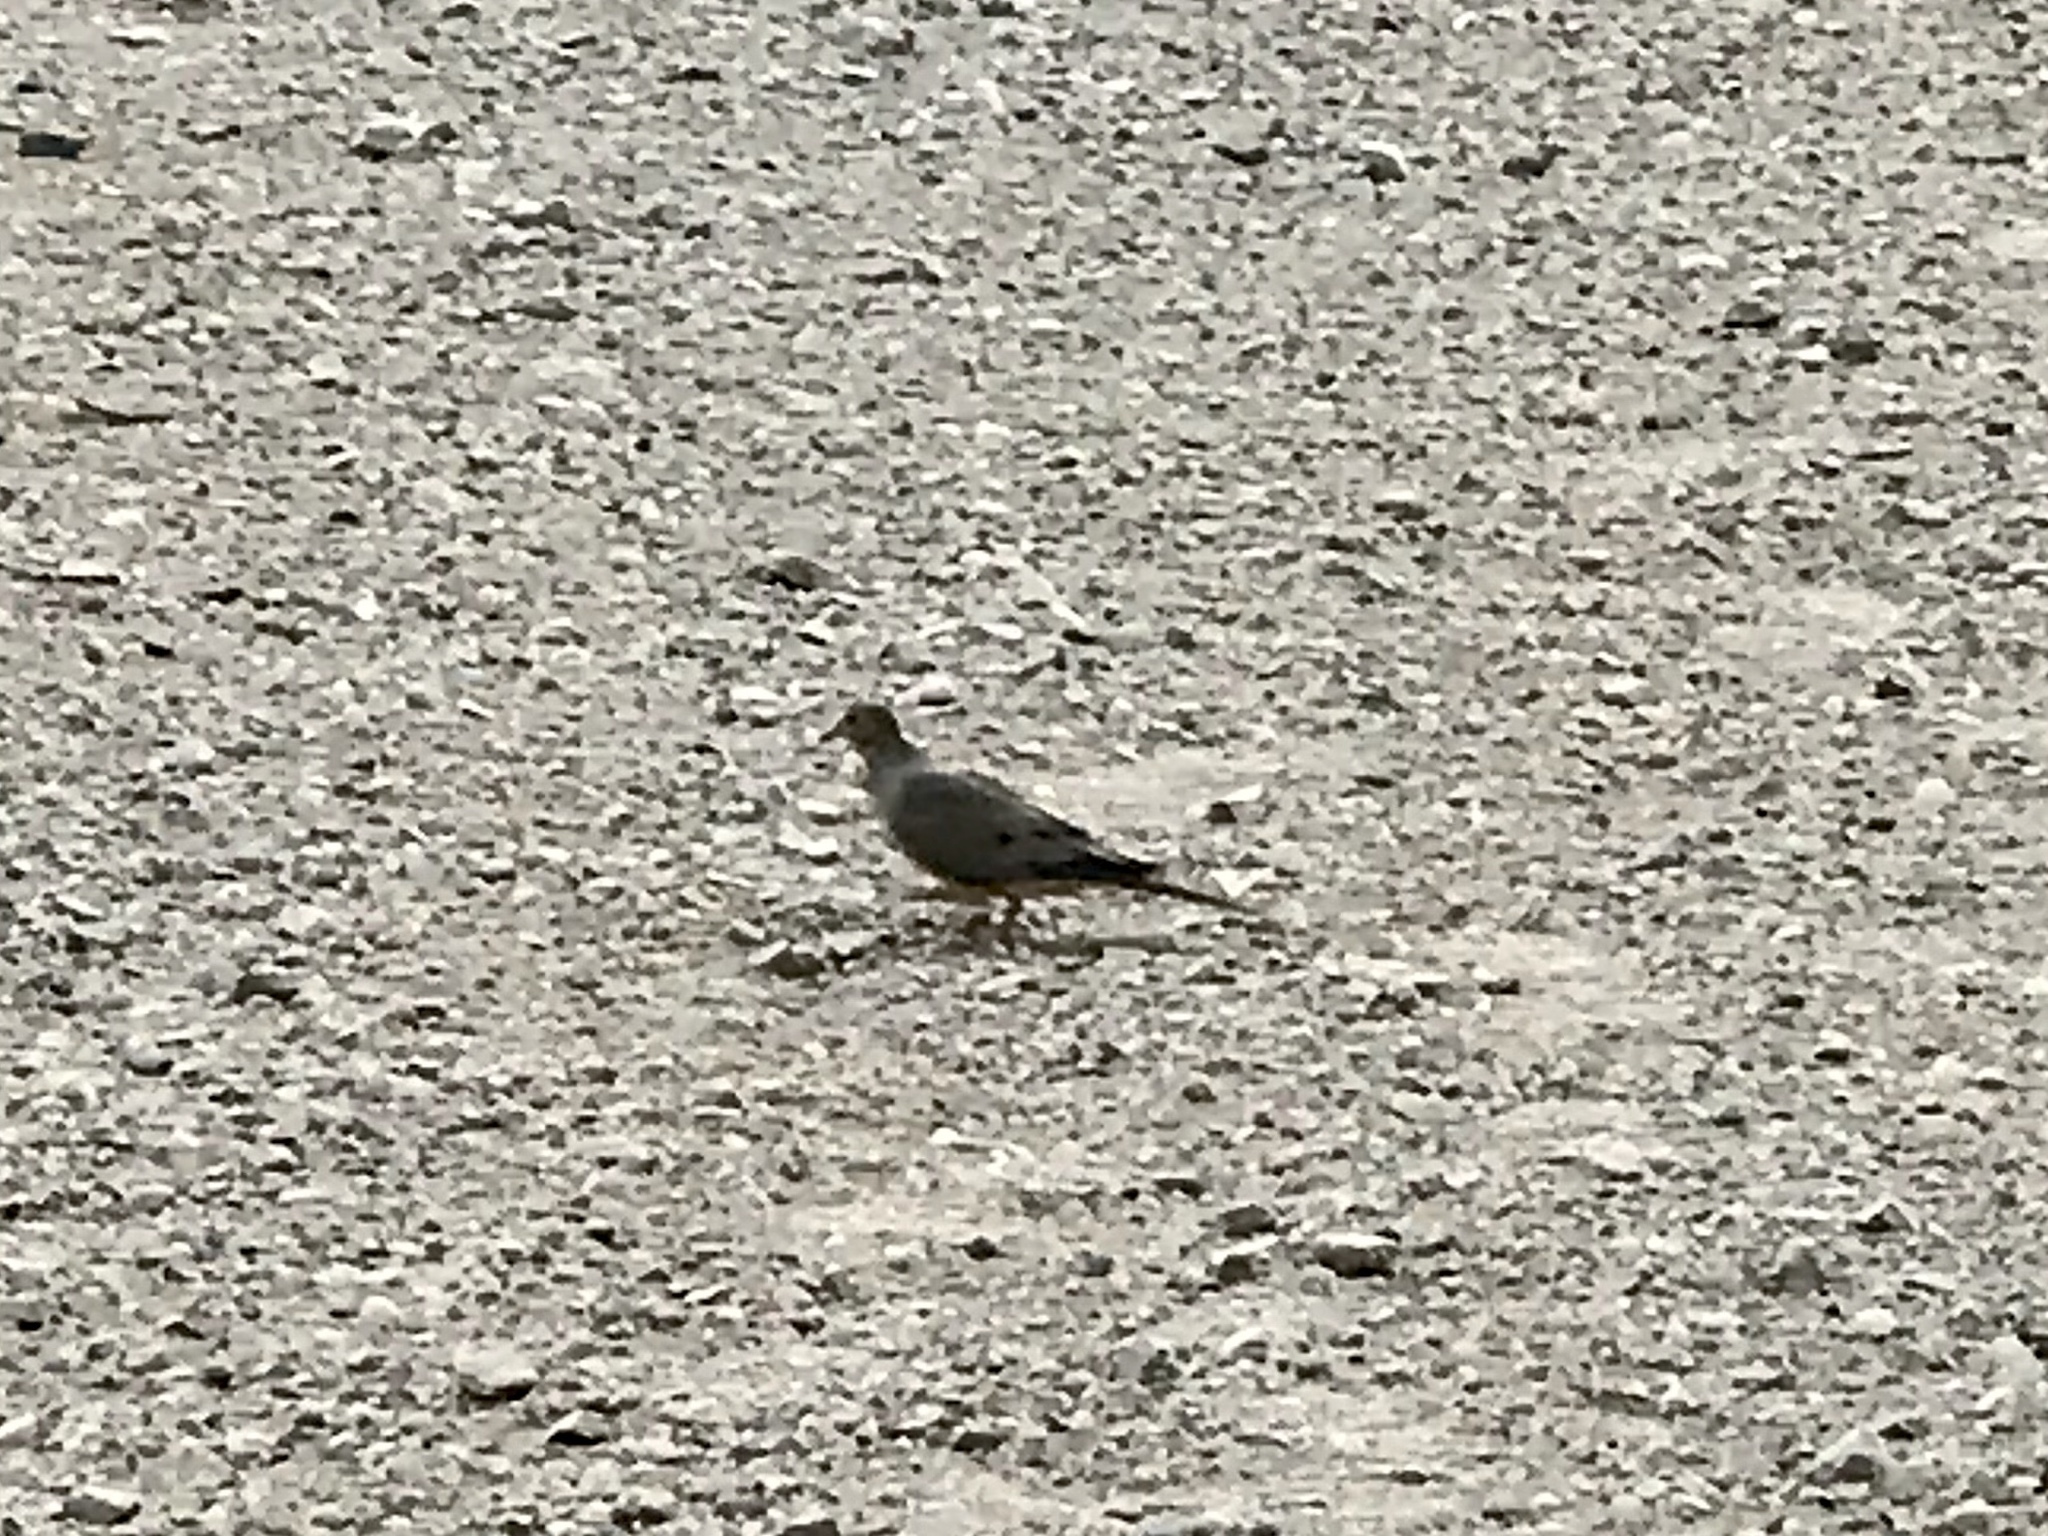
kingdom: Animalia
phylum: Chordata
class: Aves
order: Columbiformes
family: Columbidae
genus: Zenaida
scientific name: Zenaida macroura
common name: Mourning dove
